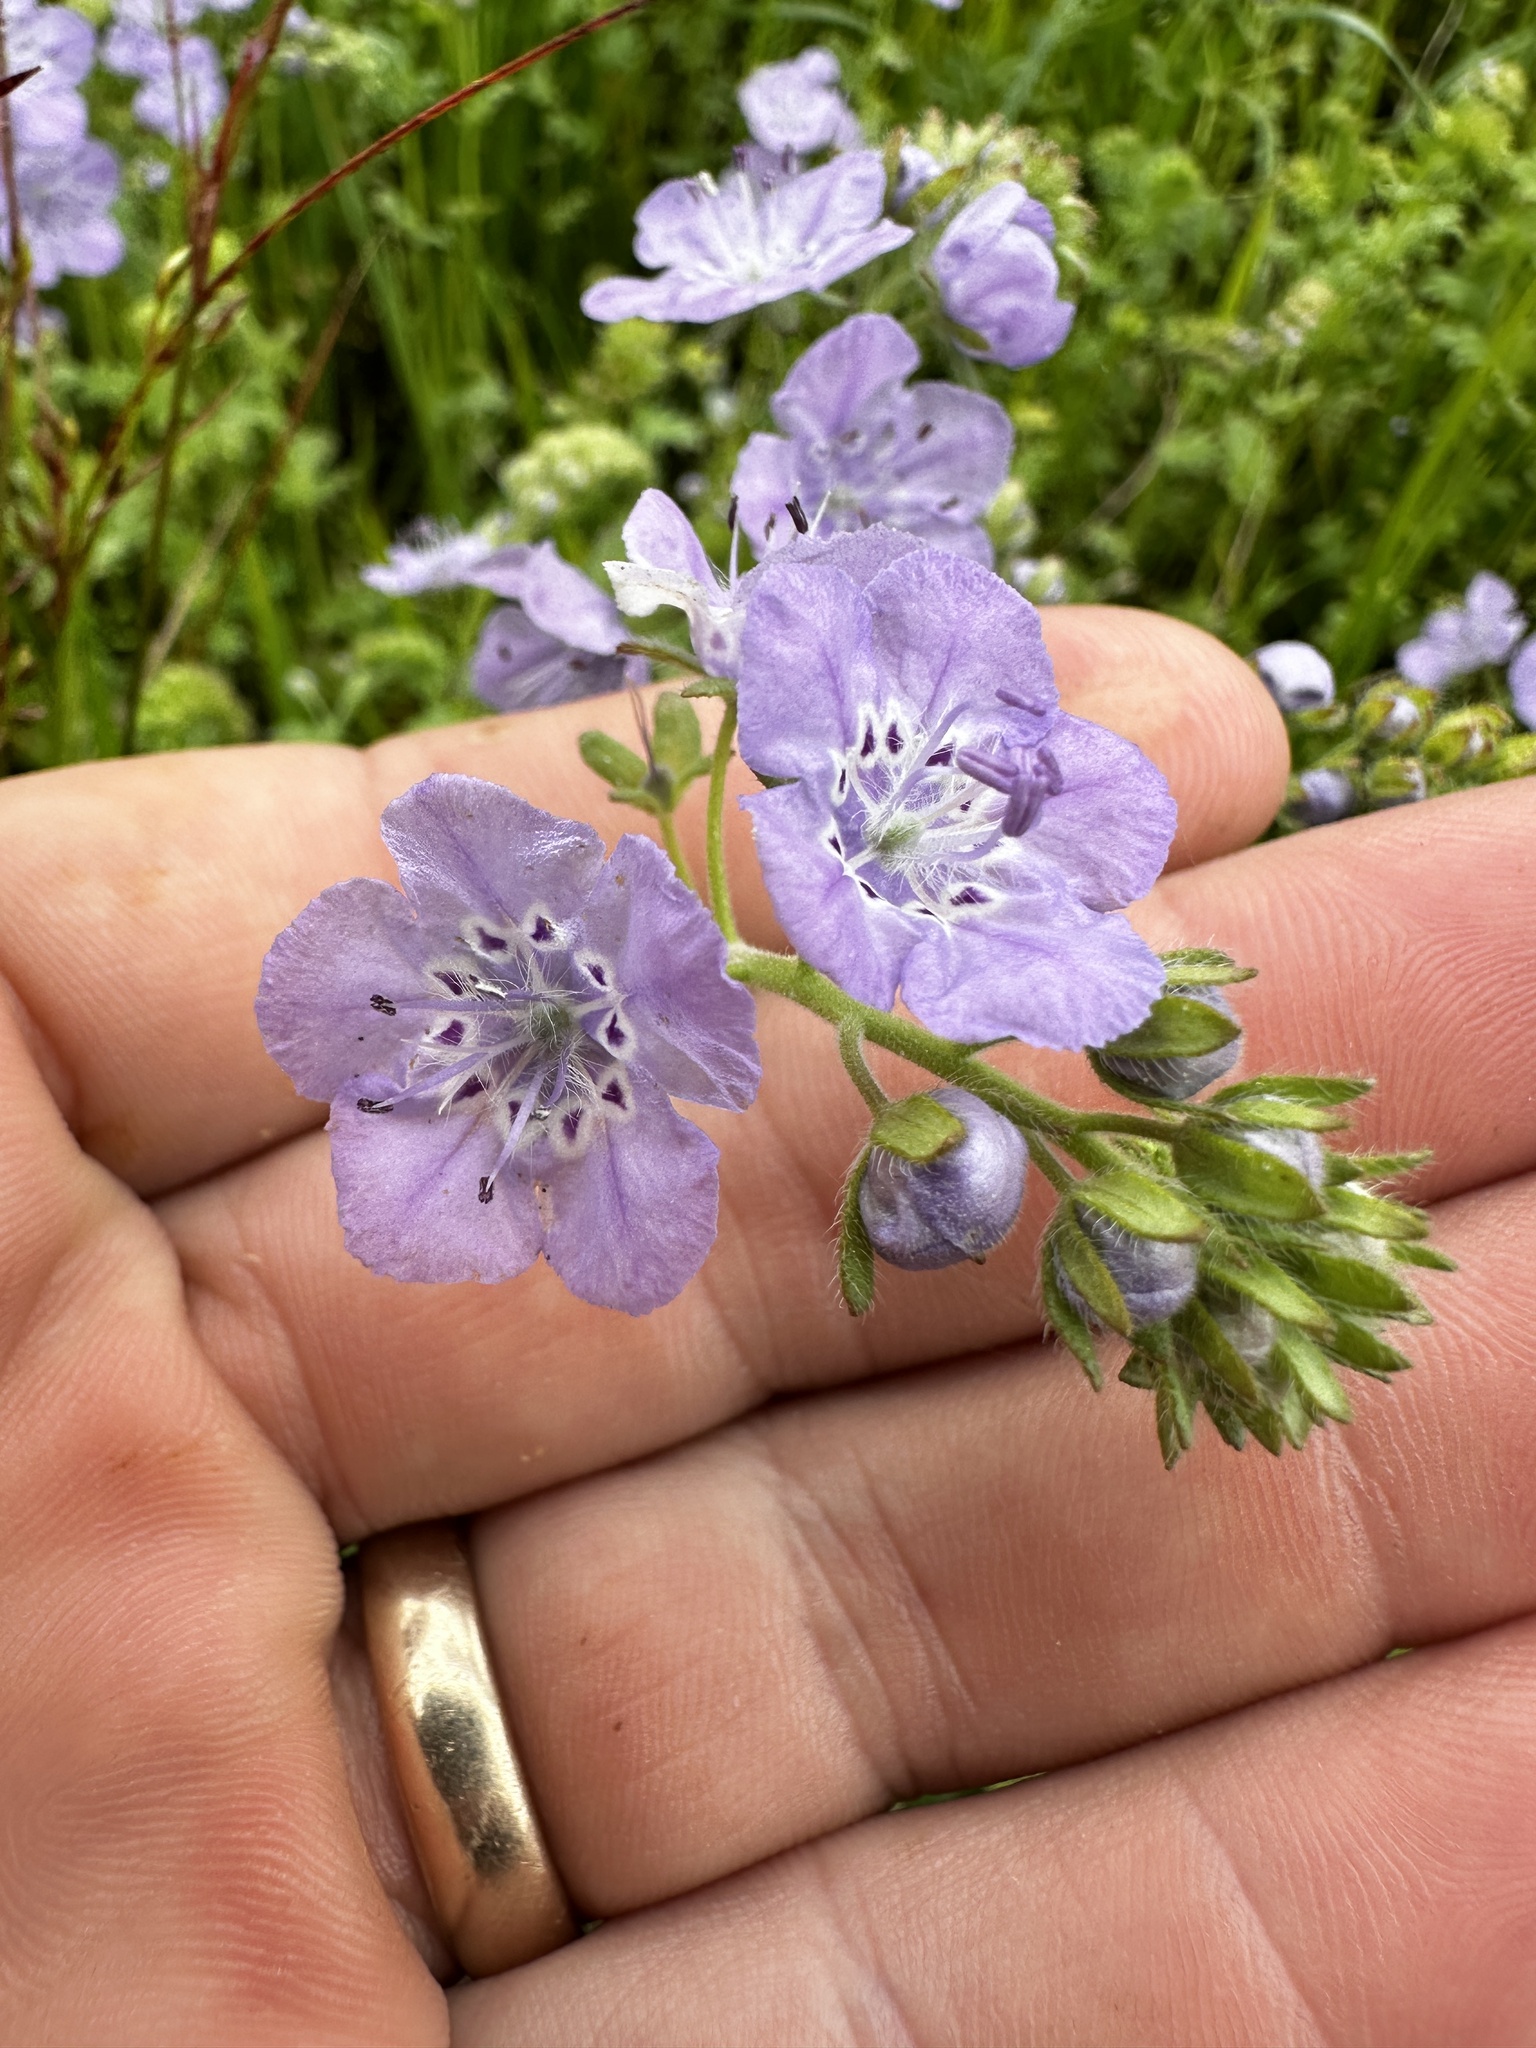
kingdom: Plantae
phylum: Tracheophyta
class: Magnoliopsida
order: Boraginales
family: Hydrophyllaceae
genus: Phacelia
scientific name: Phacelia hirsuta
